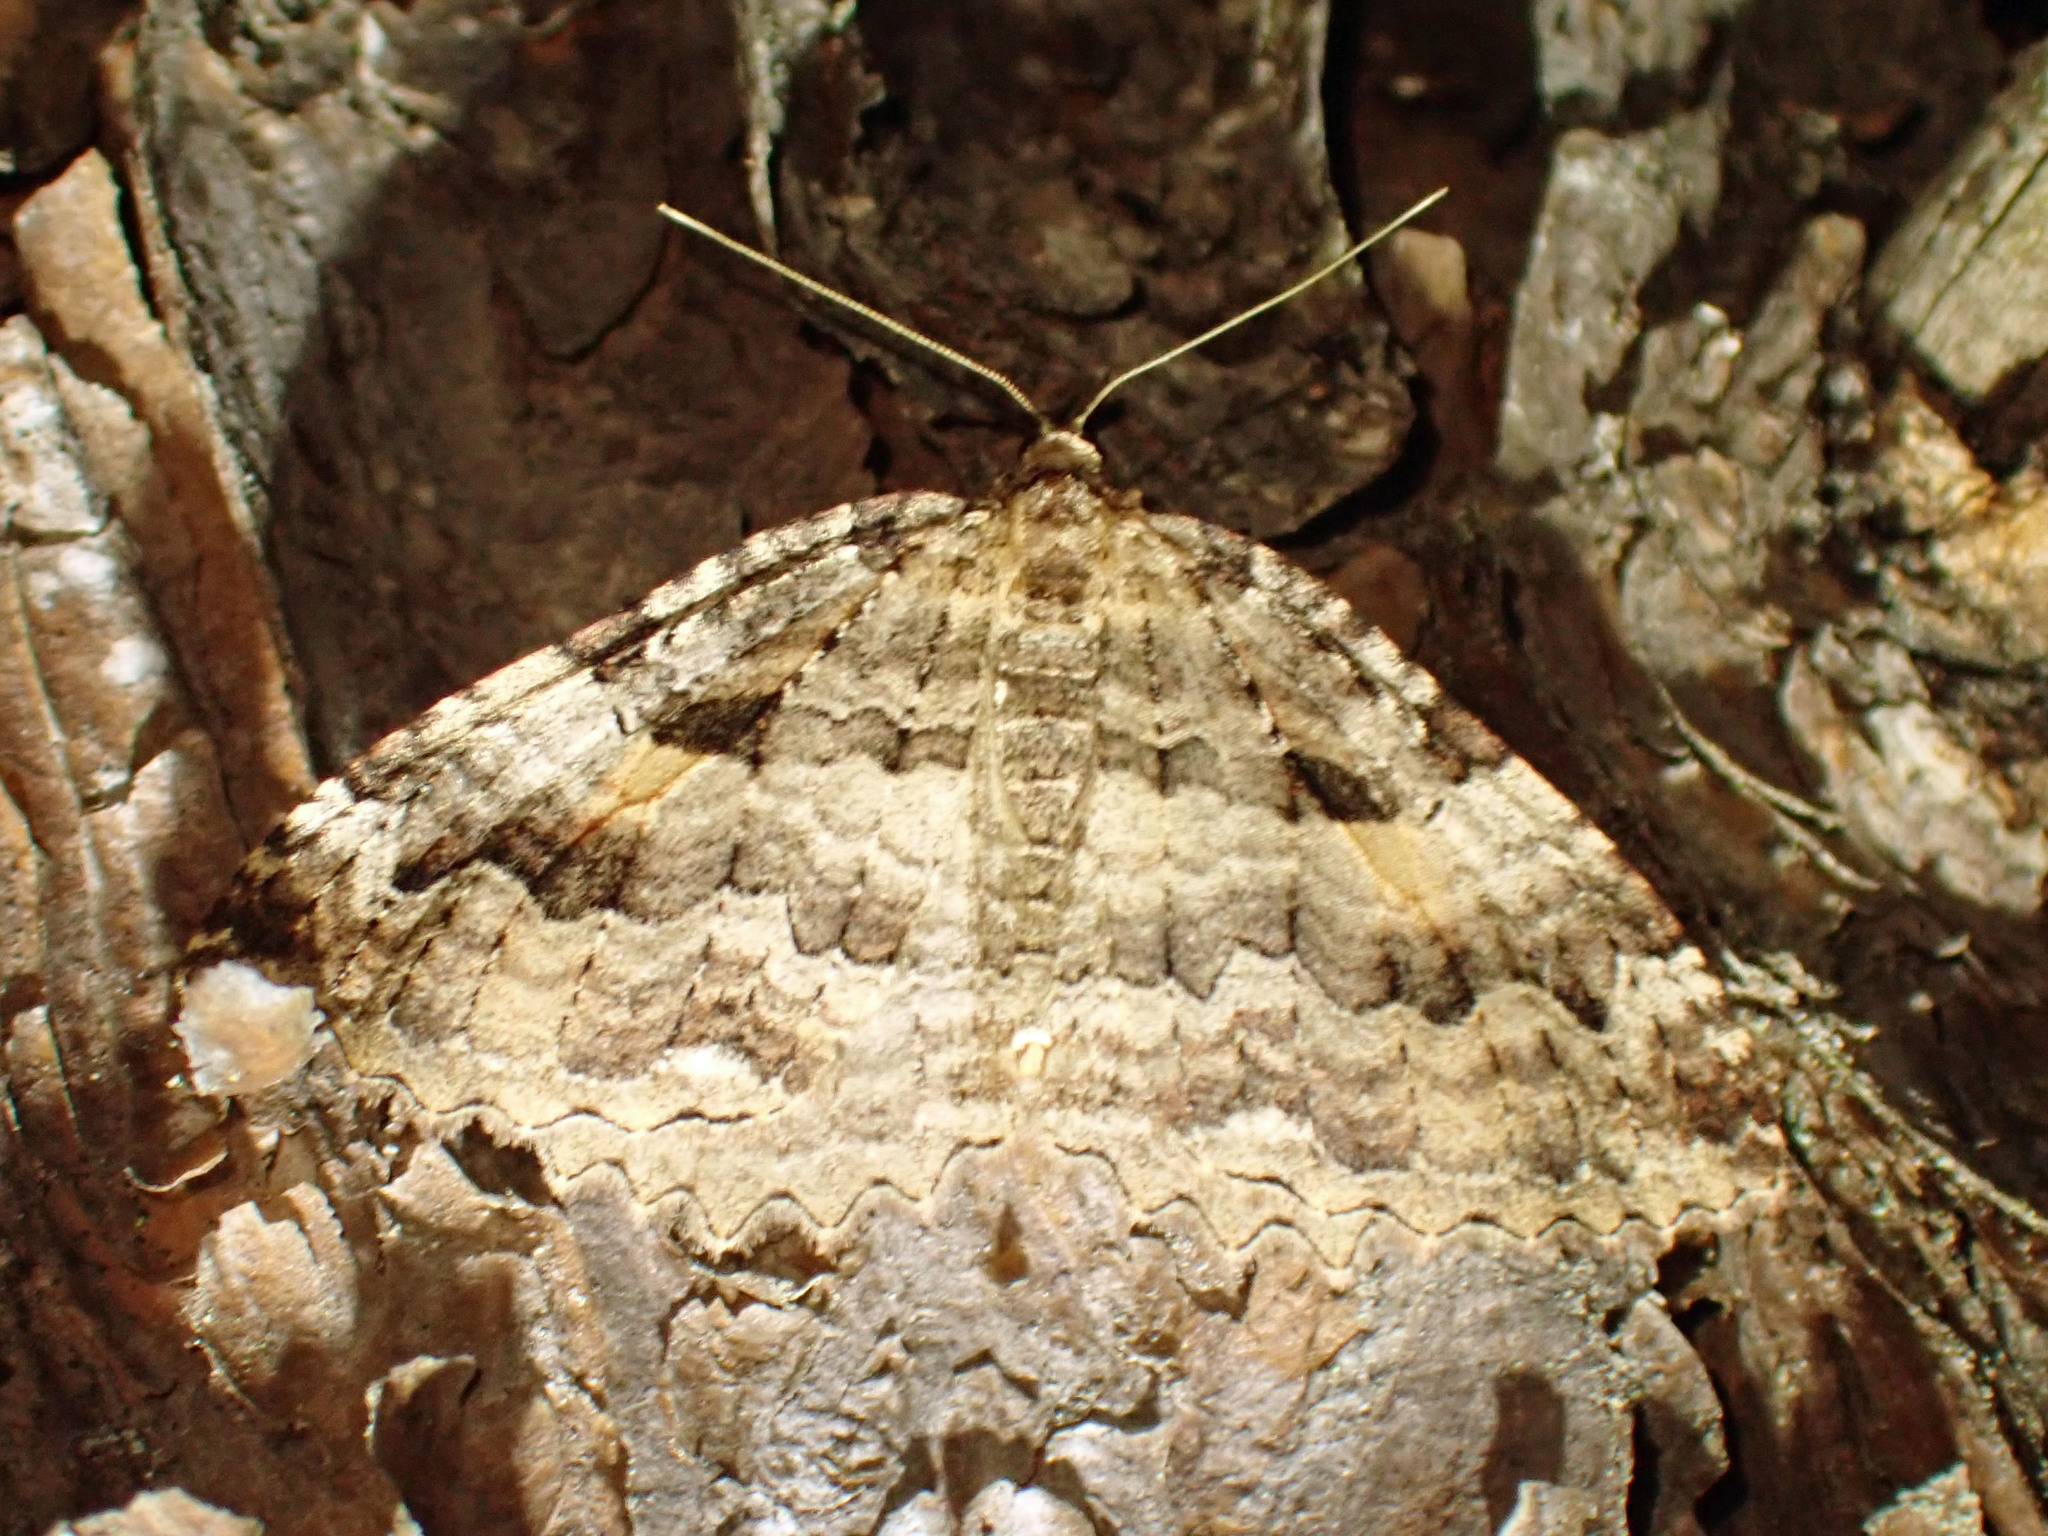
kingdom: Animalia
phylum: Arthropoda
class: Insecta
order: Lepidoptera
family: Geometridae
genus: Triphosa
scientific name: Triphosa haesitata
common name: Tissue moth
